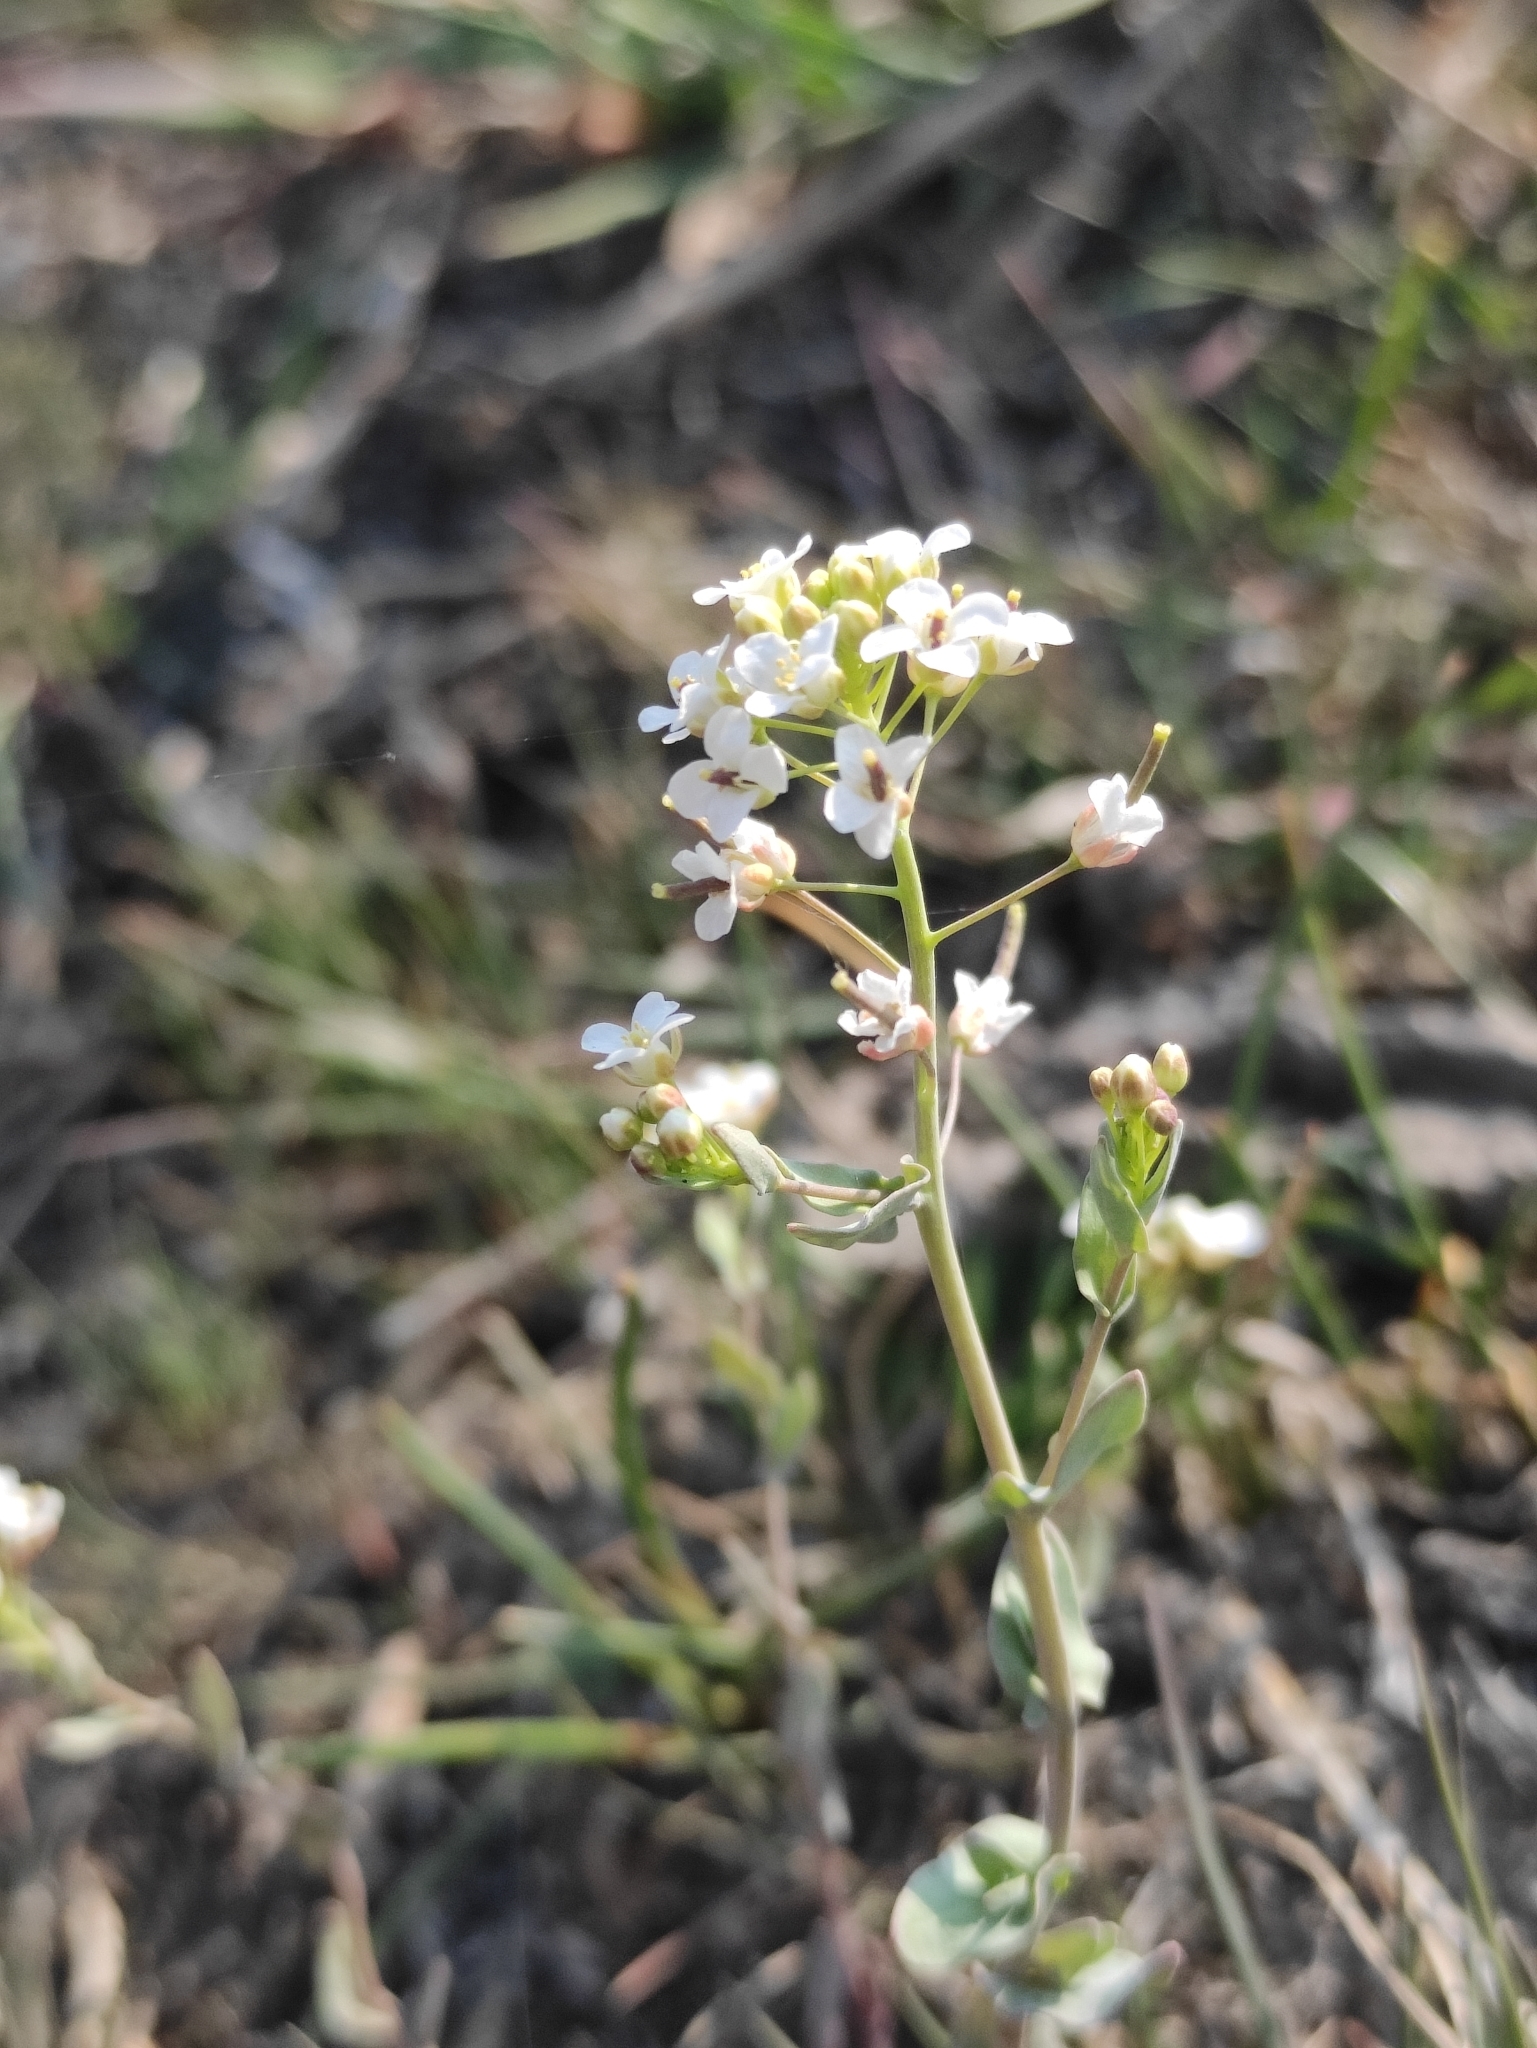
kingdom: Plantae
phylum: Tracheophyta
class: Magnoliopsida
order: Brassicales
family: Brassicaceae
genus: Noccaea
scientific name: Noccaea thlaspidioides
